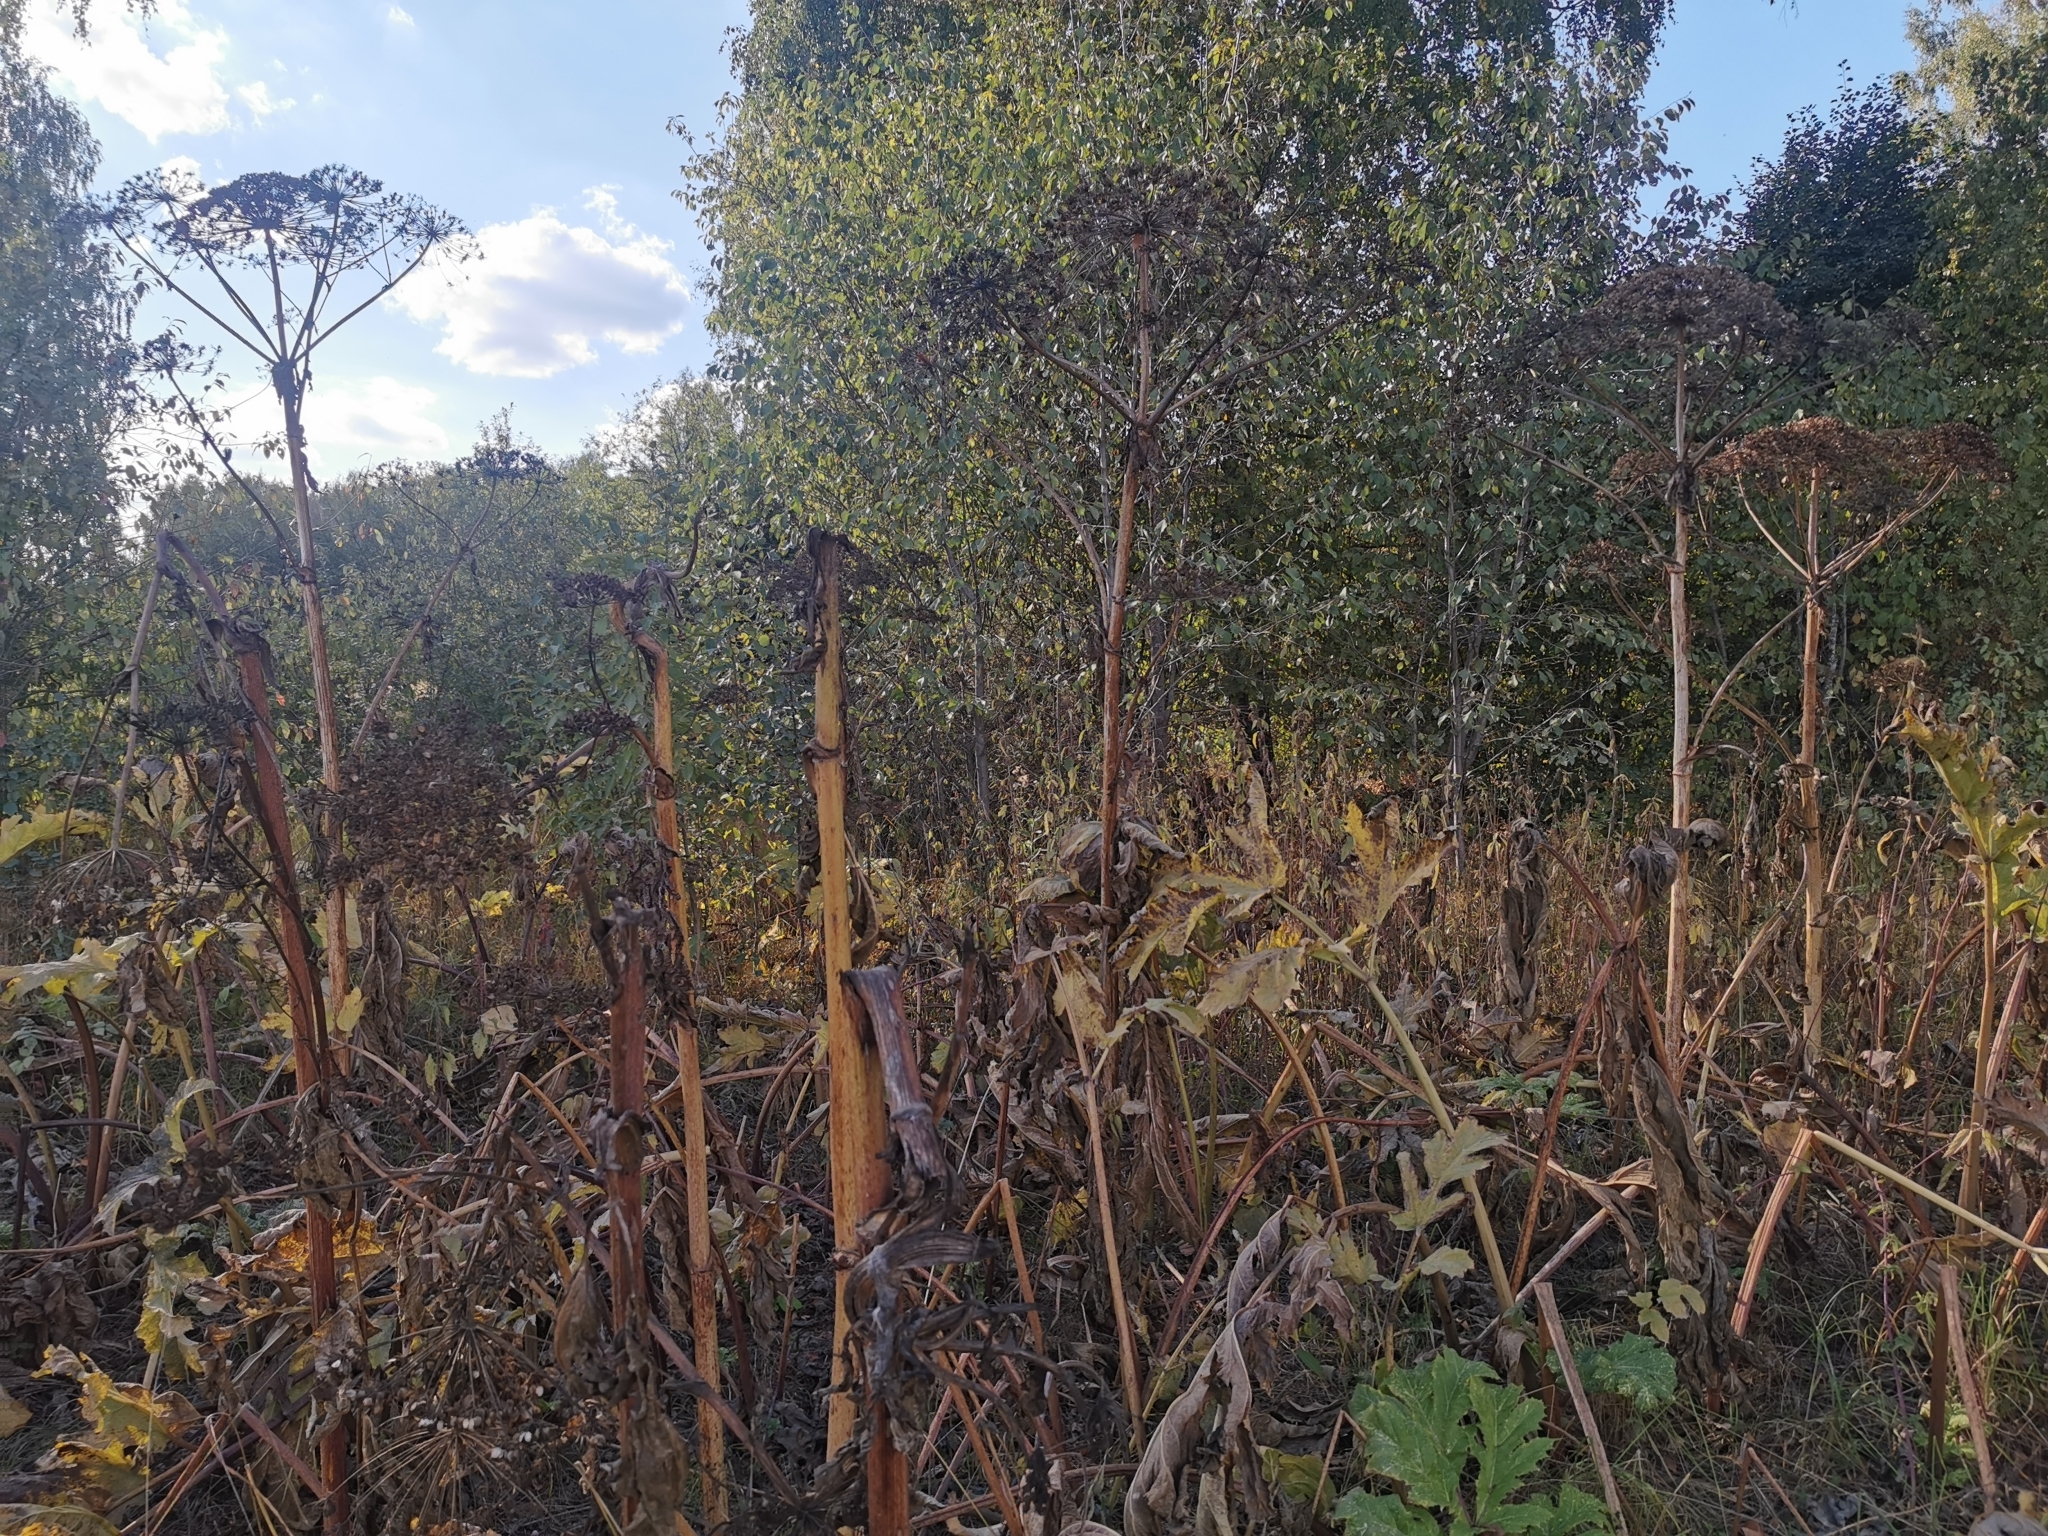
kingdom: Plantae
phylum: Tracheophyta
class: Magnoliopsida
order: Apiales
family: Apiaceae
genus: Heracleum
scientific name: Heracleum sosnowskyi
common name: Sosnowsky's hogweed
